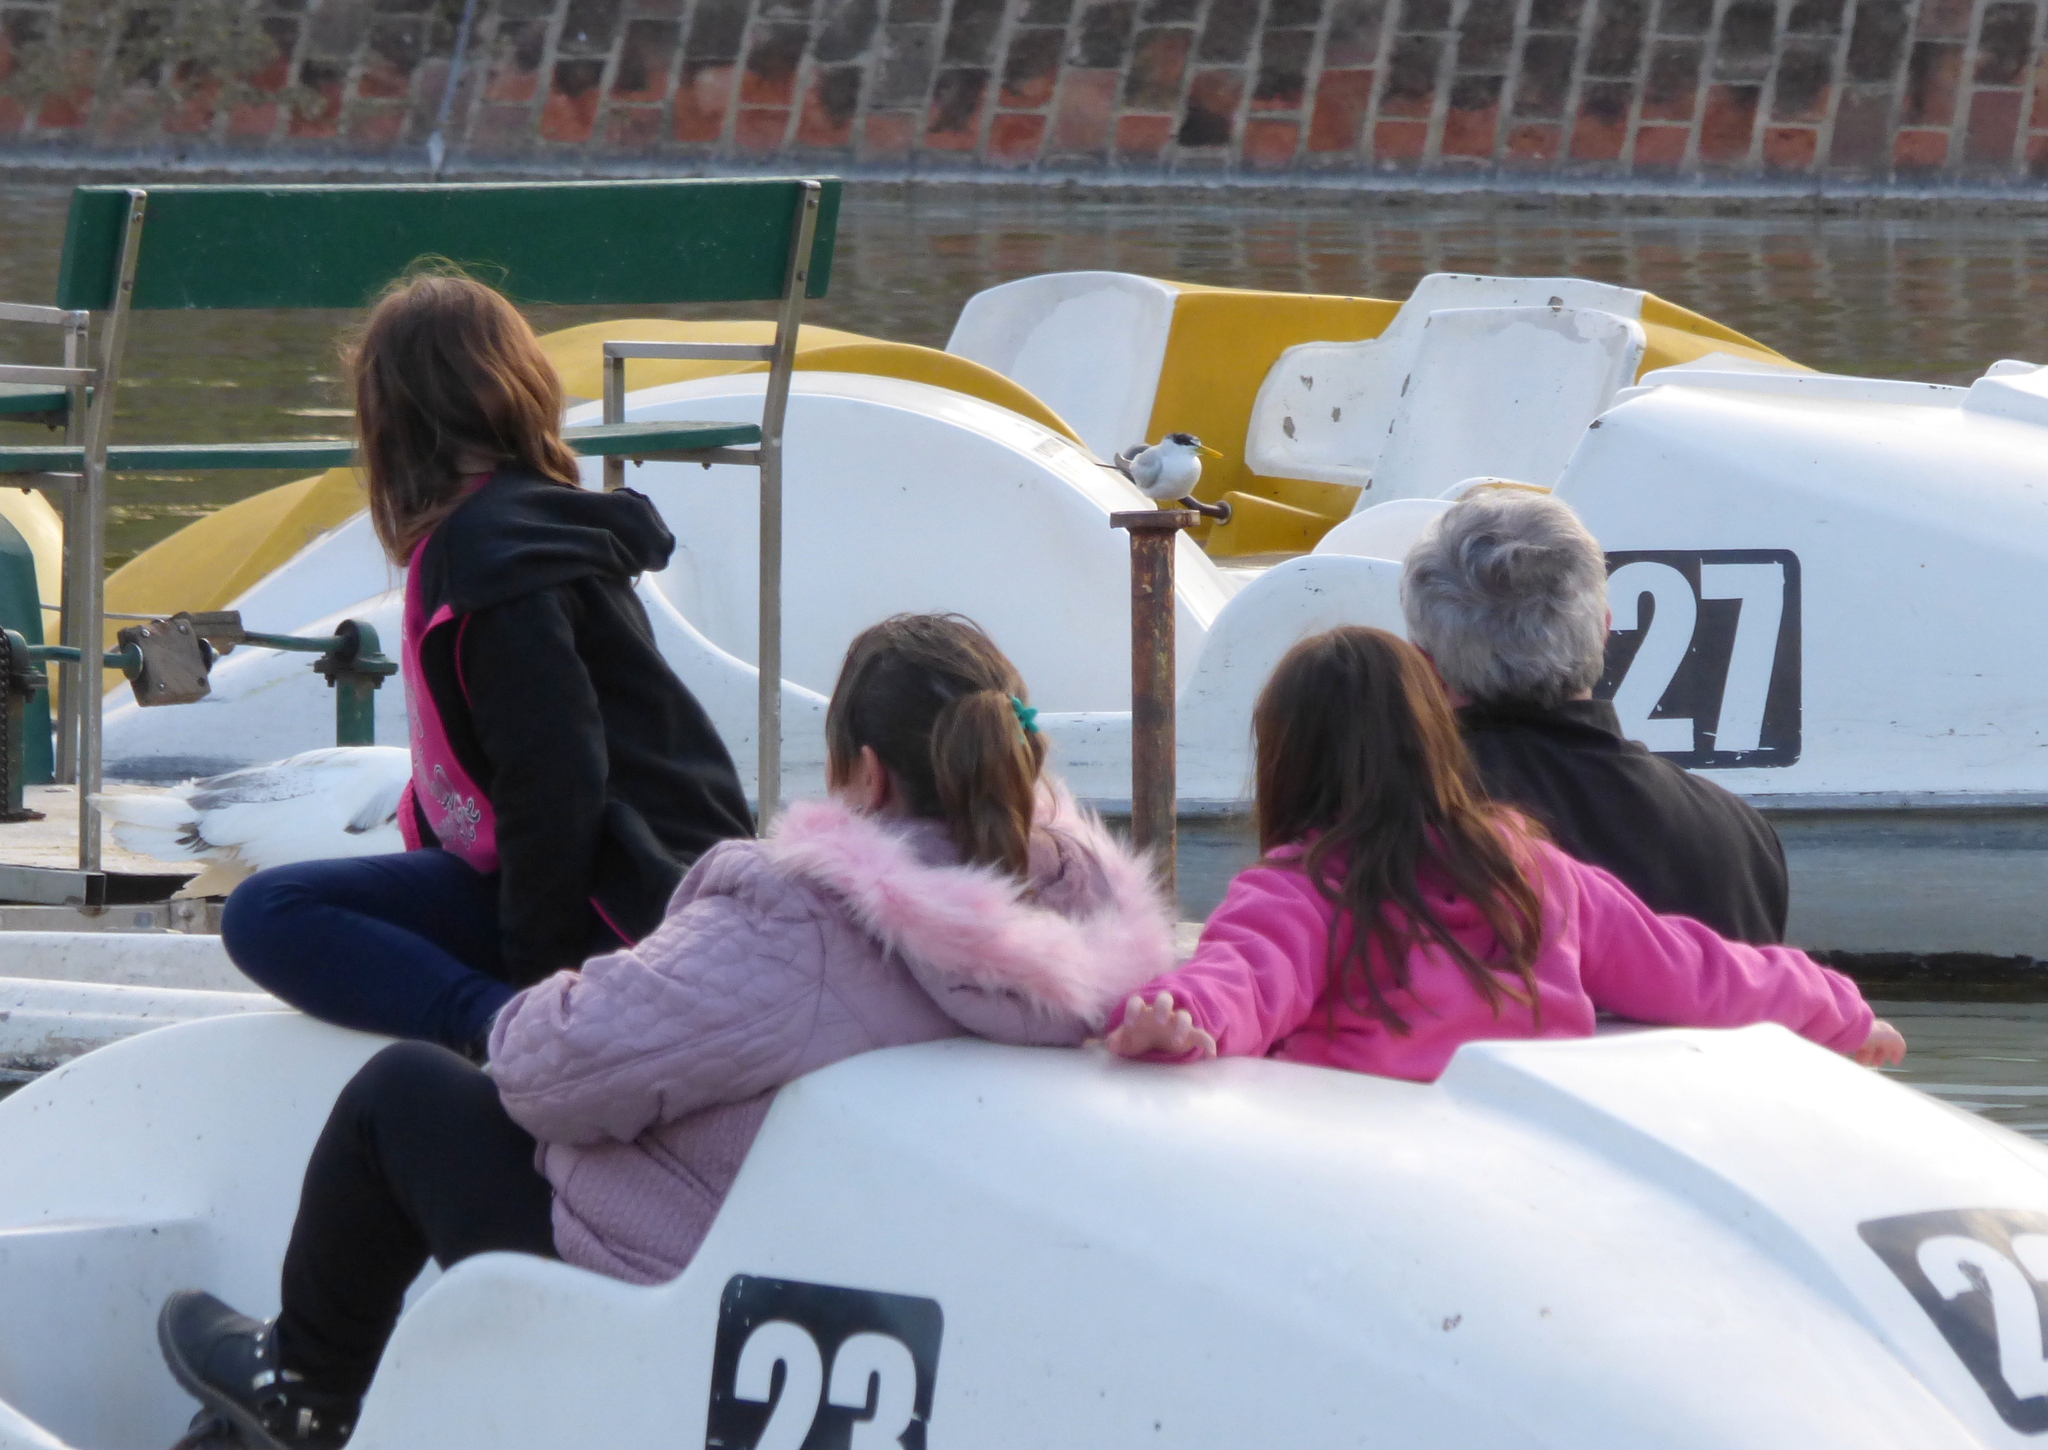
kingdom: Animalia
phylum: Chordata
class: Aves
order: Charadriiformes
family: Laridae
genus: Sternula
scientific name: Sternula superciliaris
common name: Yellow-billed tern
